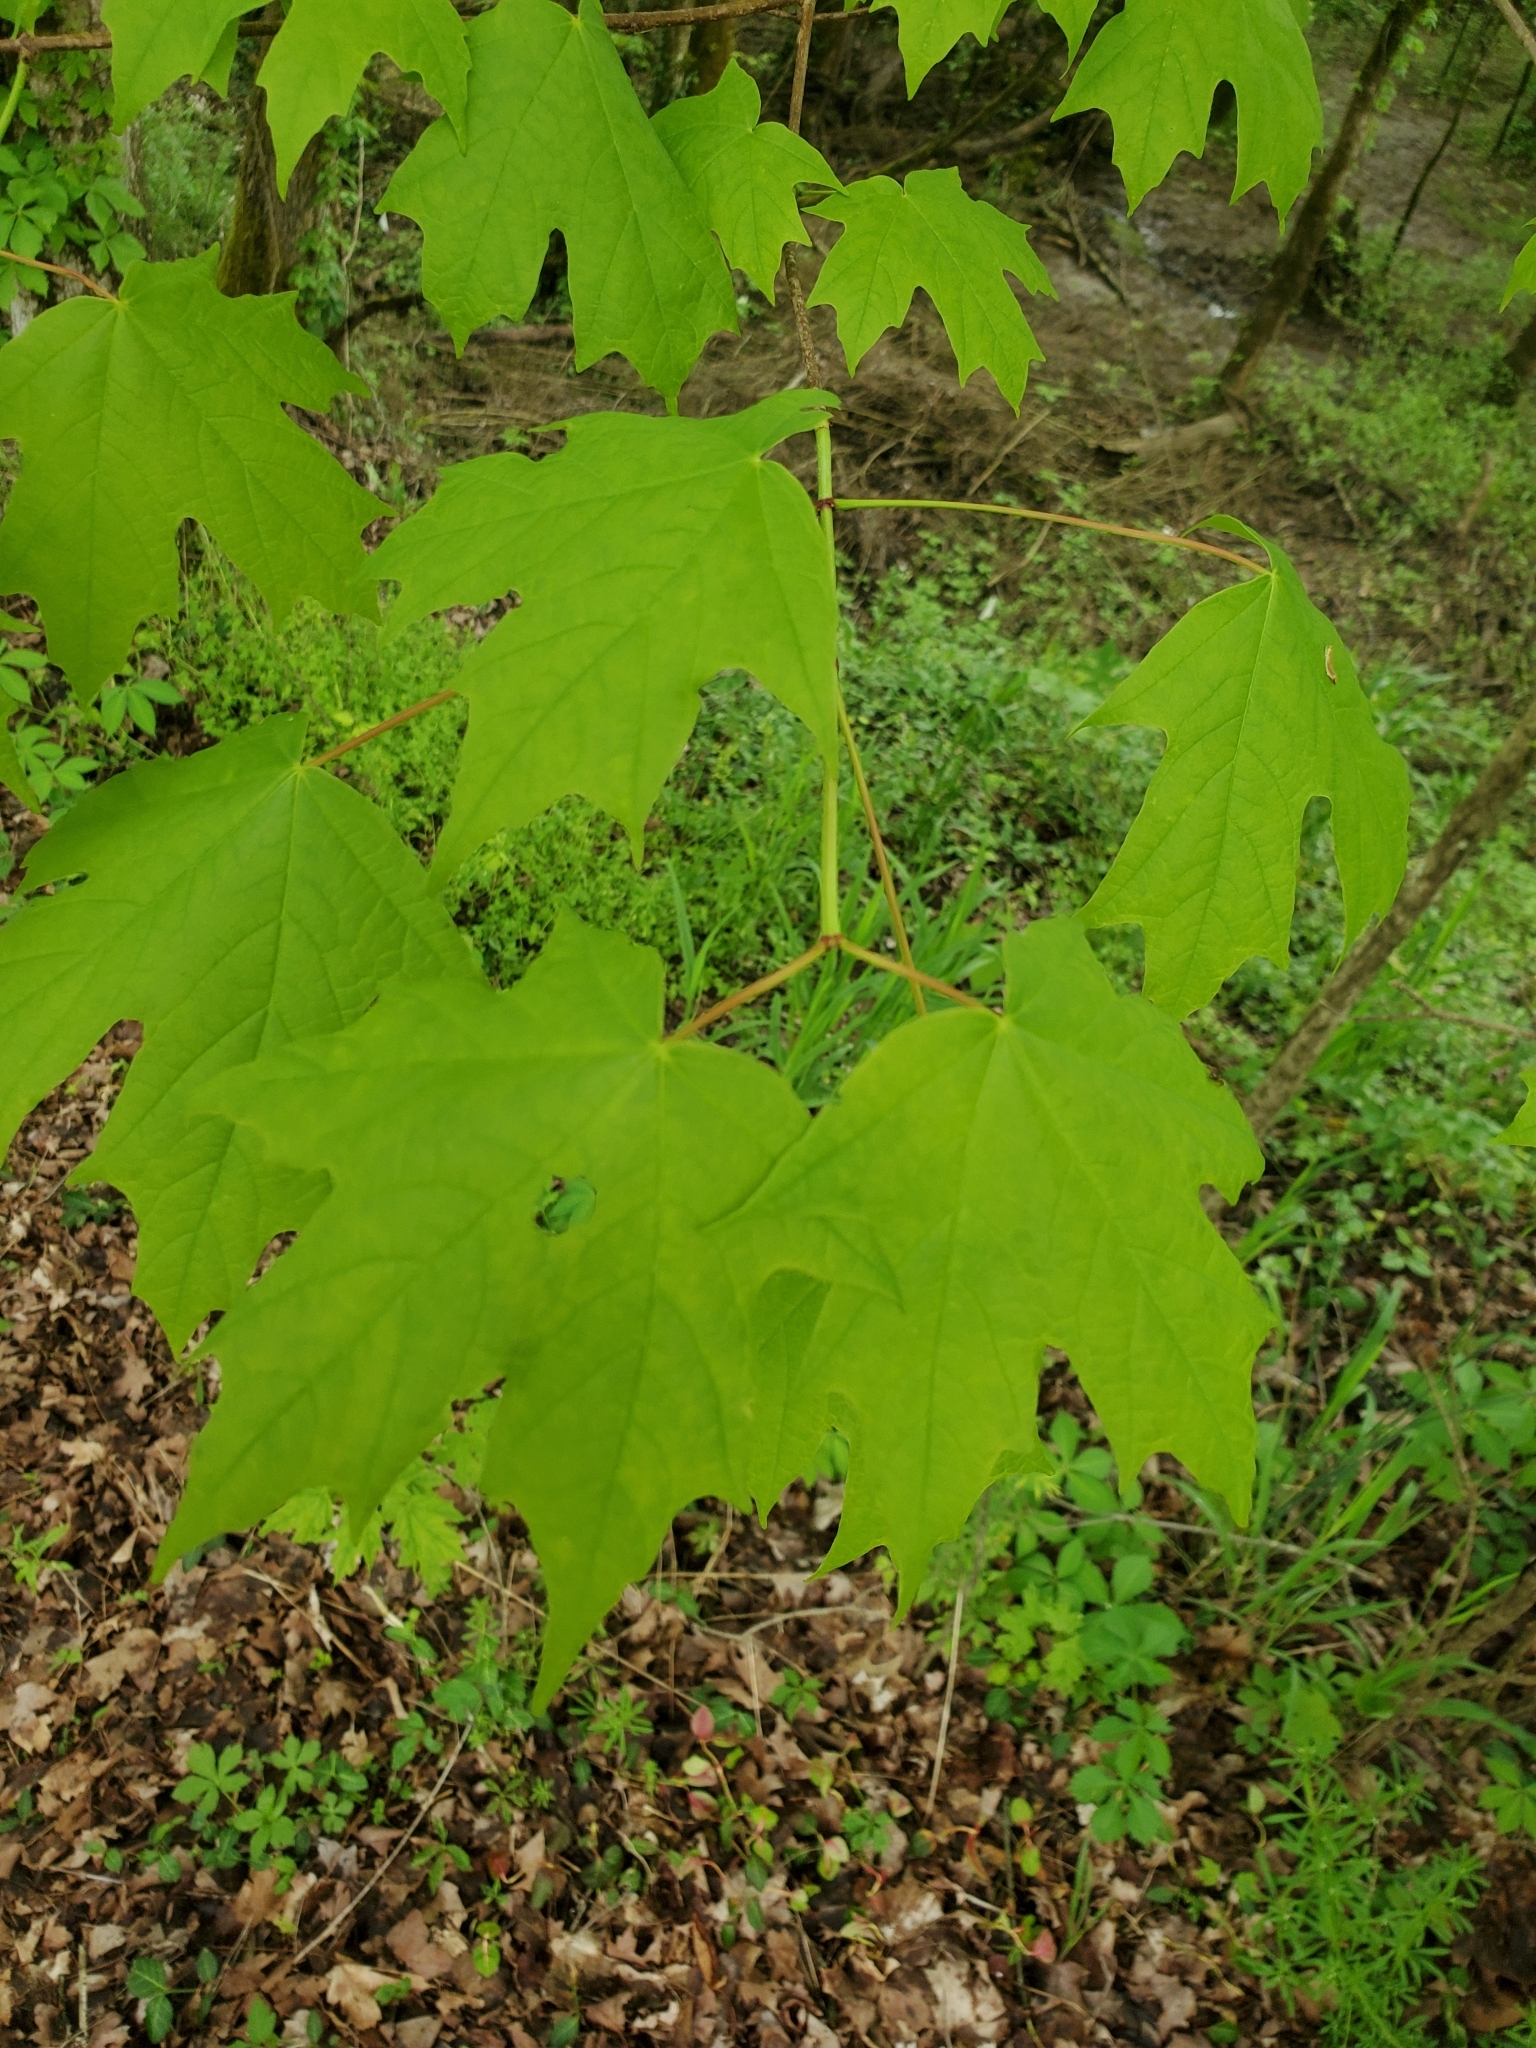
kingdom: Plantae
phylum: Tracheophyta
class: Magnoliopsida
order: Sapindales
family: Sapindaceae
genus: Acer
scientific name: Acer saccharum
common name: Sugar maple
